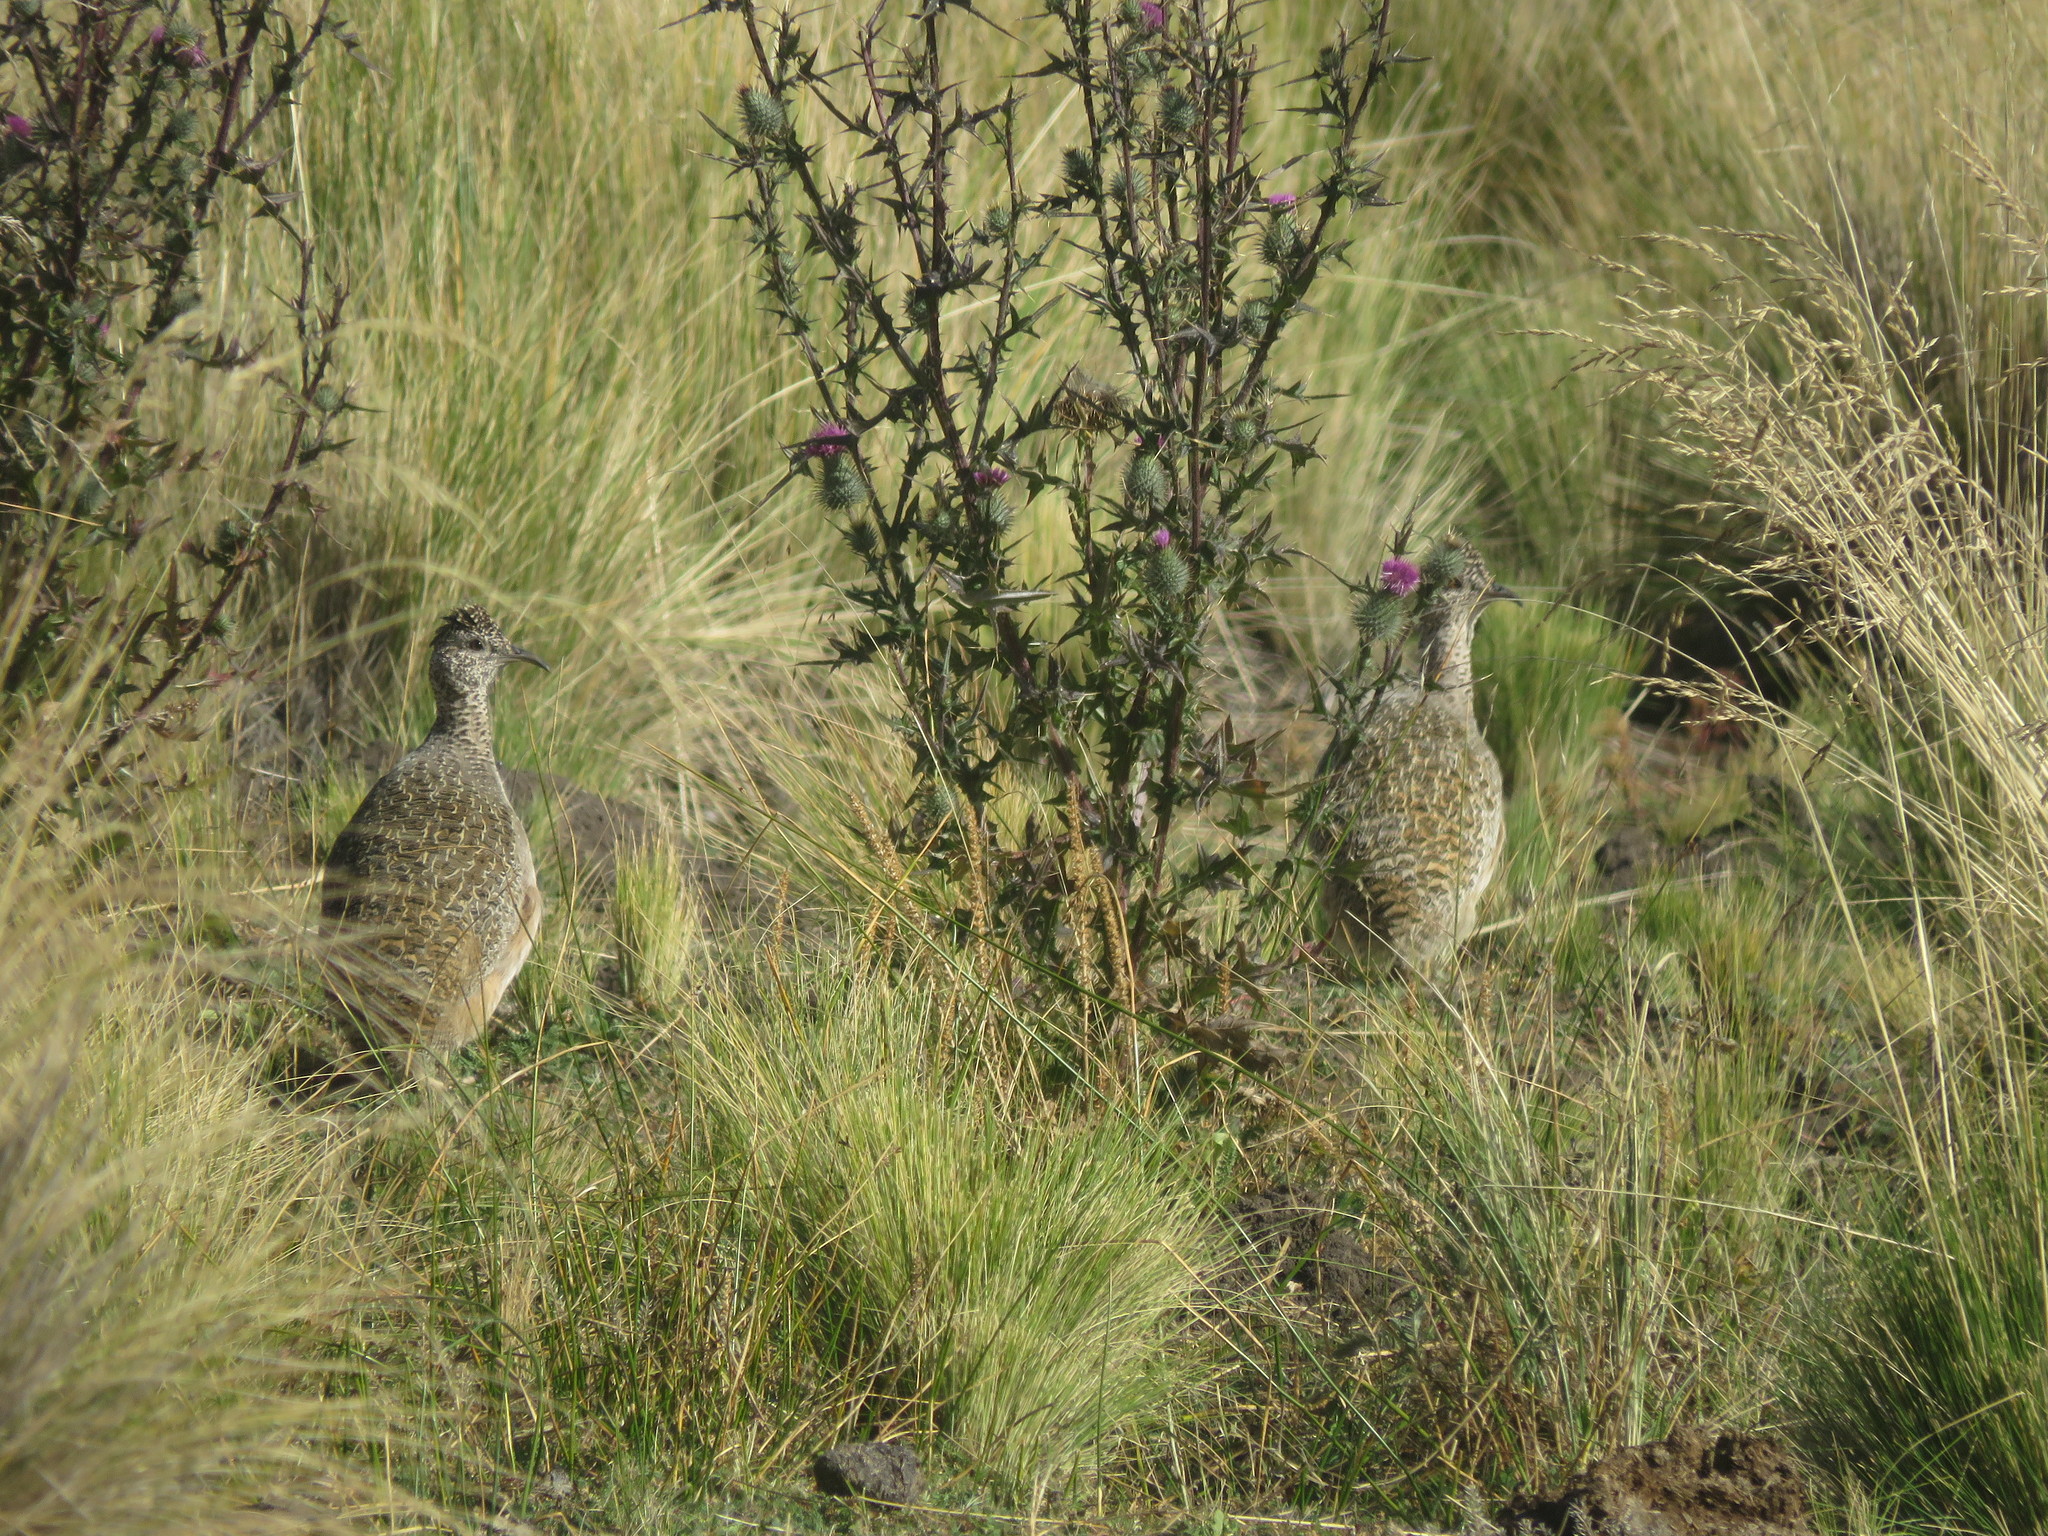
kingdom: Animalia
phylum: Chordata
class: Aves
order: Tinamiformes
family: Tinamidae
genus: Nothoprocta
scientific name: Nothoprocta ornata
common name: Ornate tinamou
